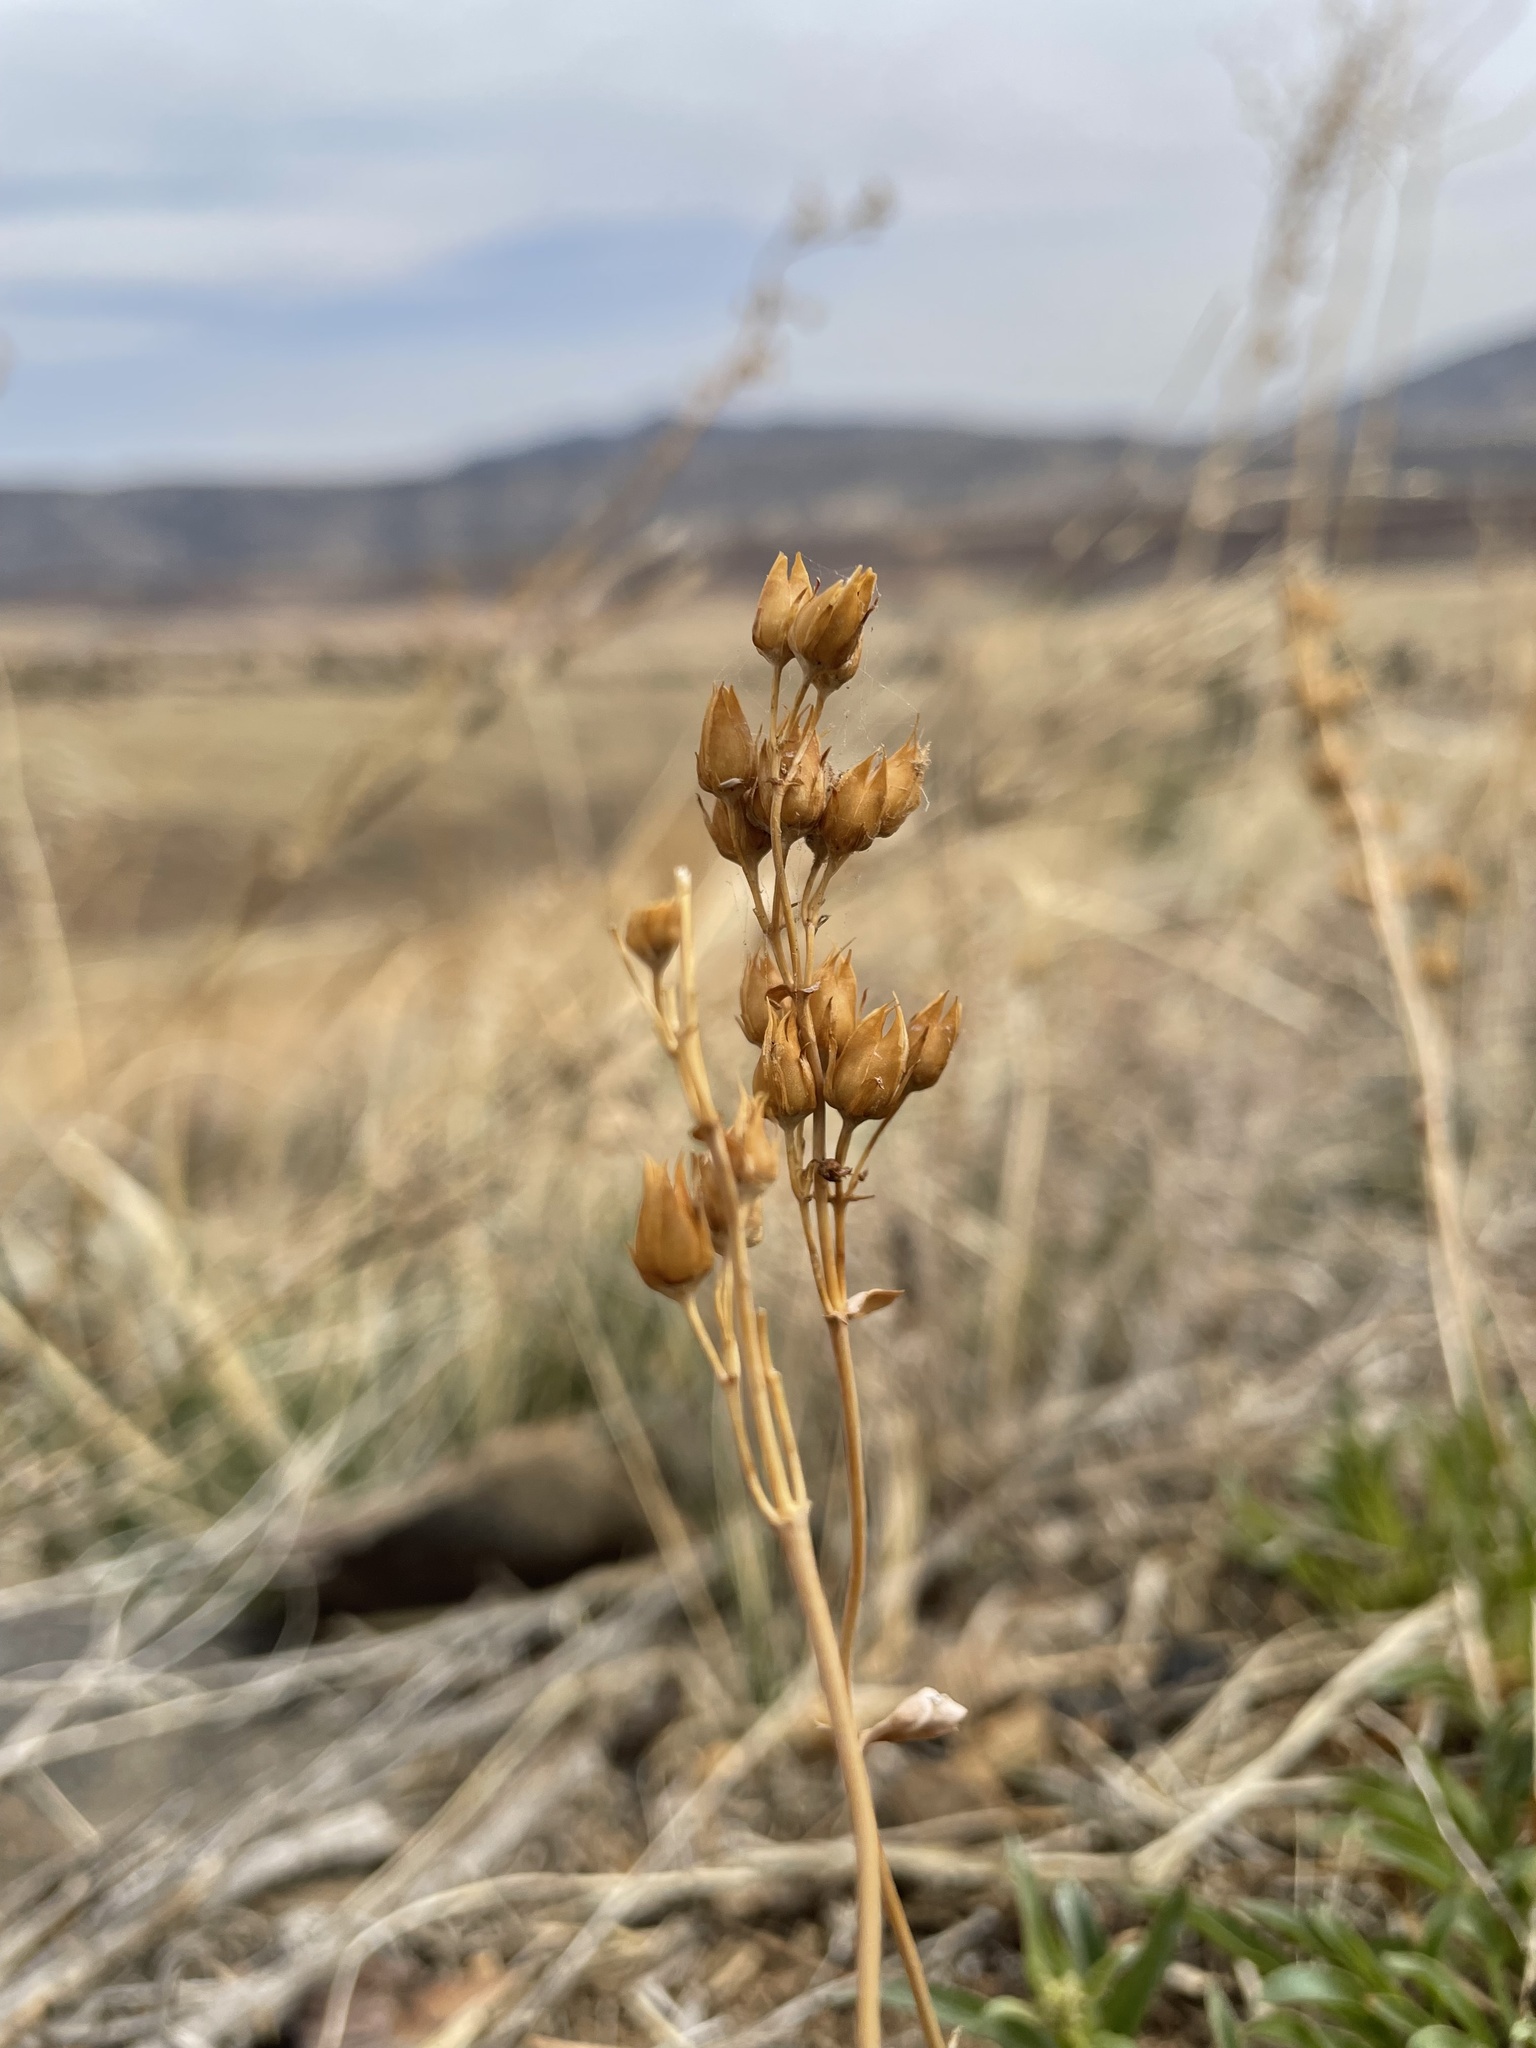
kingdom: Plantae
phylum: Tracheophyta
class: Magnoliopsida
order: Lamiales
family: Plantaginaceae
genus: Penstemon
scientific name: Penstemon virens
